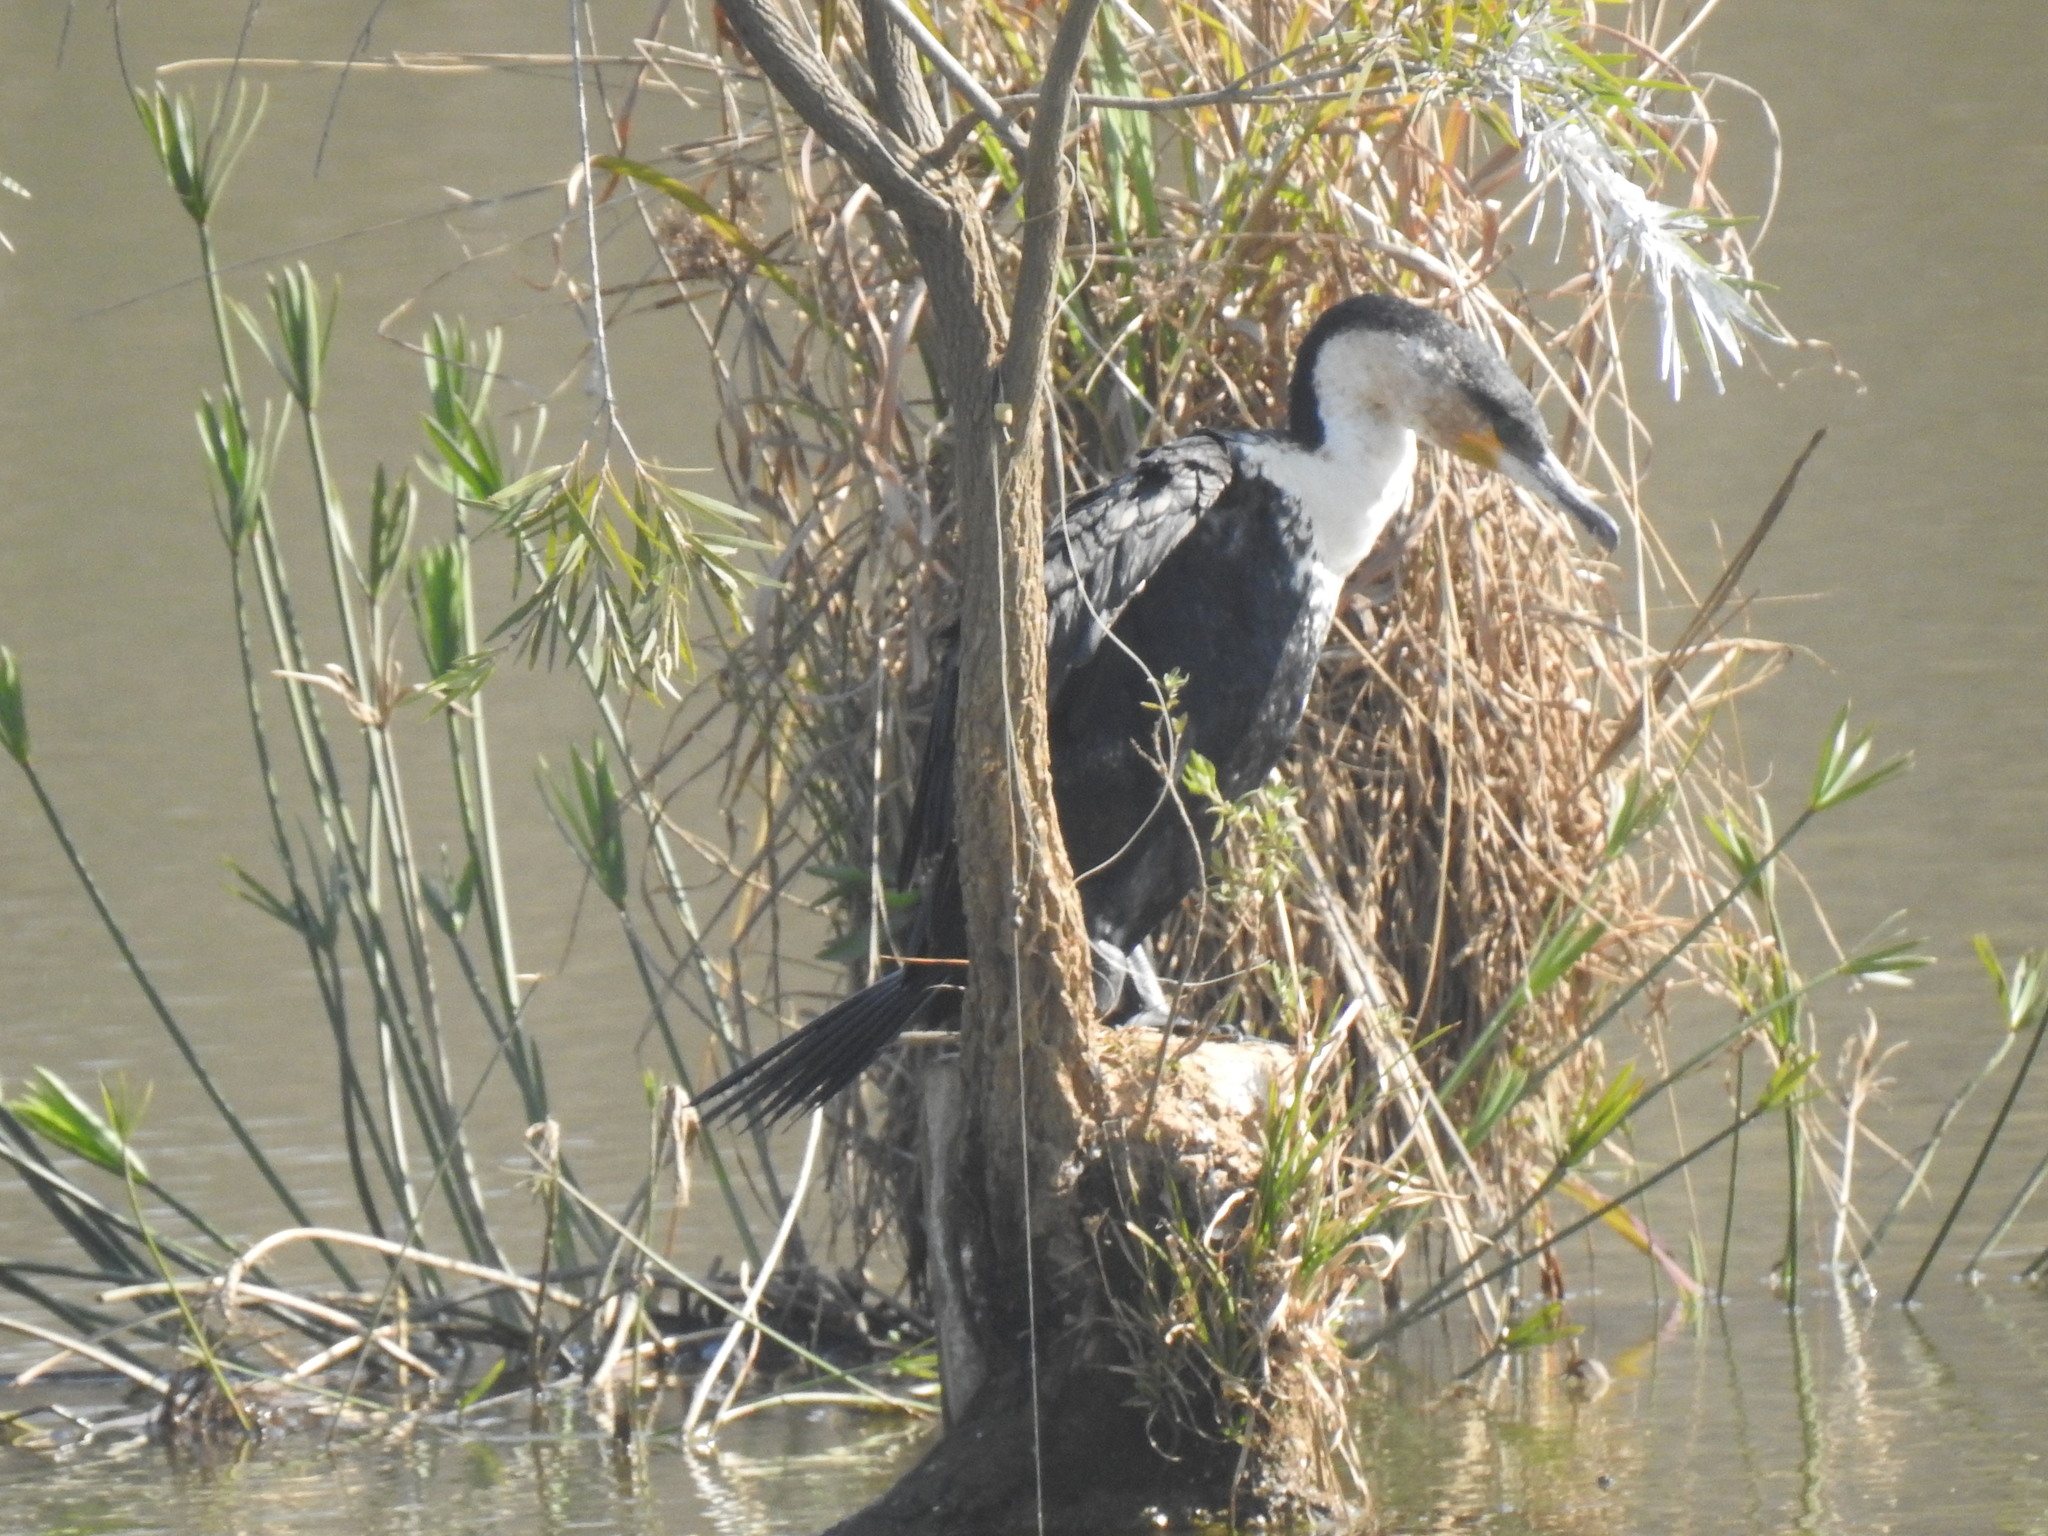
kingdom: Animalia
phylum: Chordata
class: Aves
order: Suliformes
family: Phalacrocoracidae
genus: Phalacrocorax
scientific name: Phalacrocorax carbo
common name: Great cormorant
